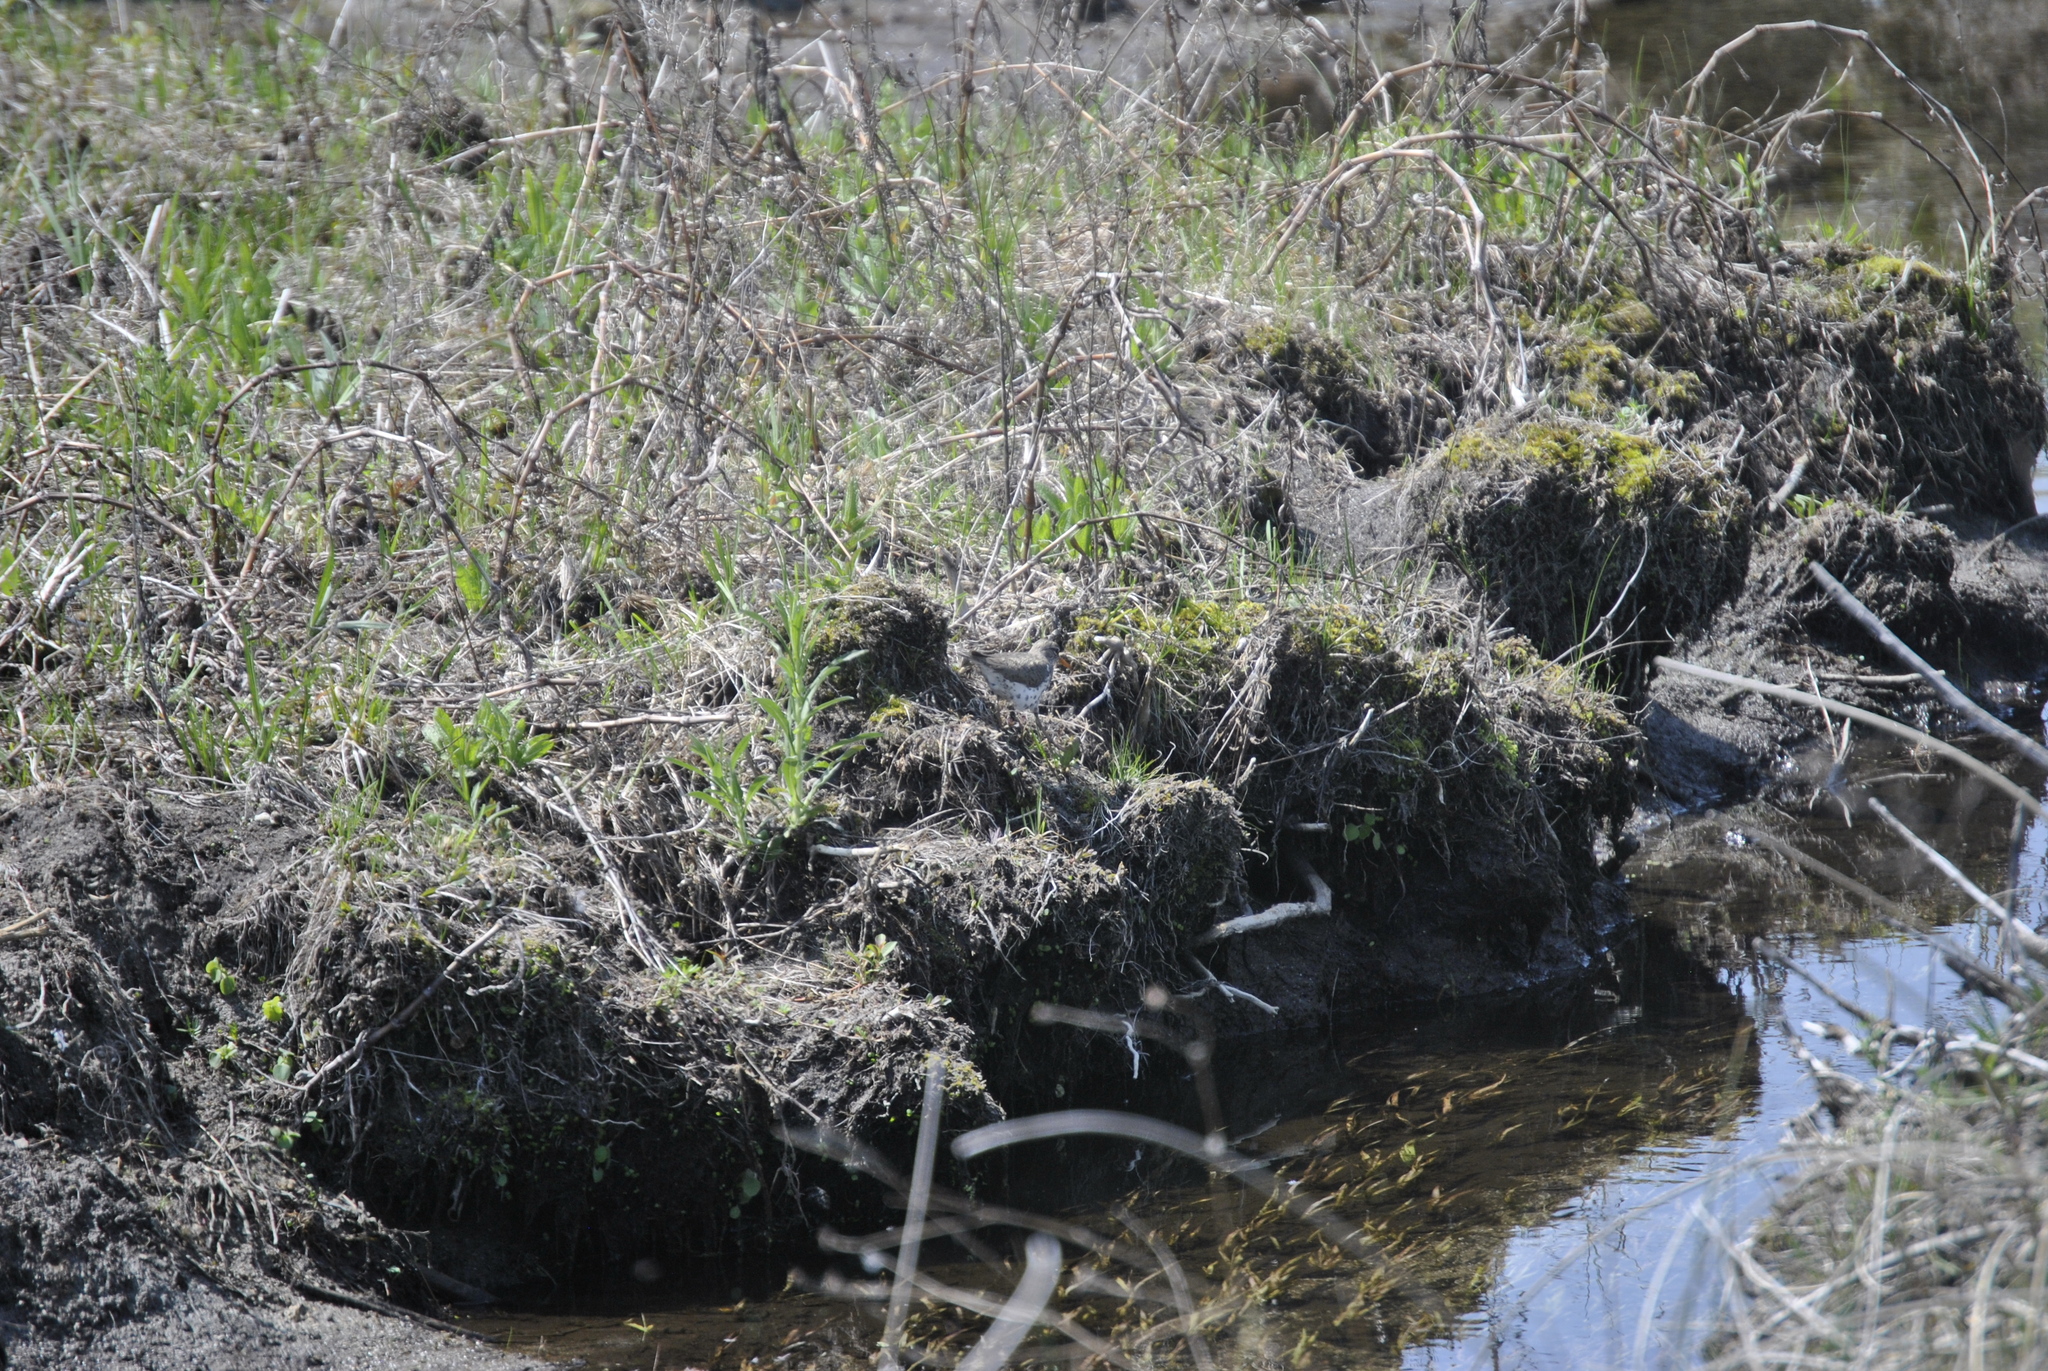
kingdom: Animalia
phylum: Chordata
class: Aves
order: Charadriiformes
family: Scolopacidae
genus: Actitis
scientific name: Actitis macularius
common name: Spotted sandpiper
